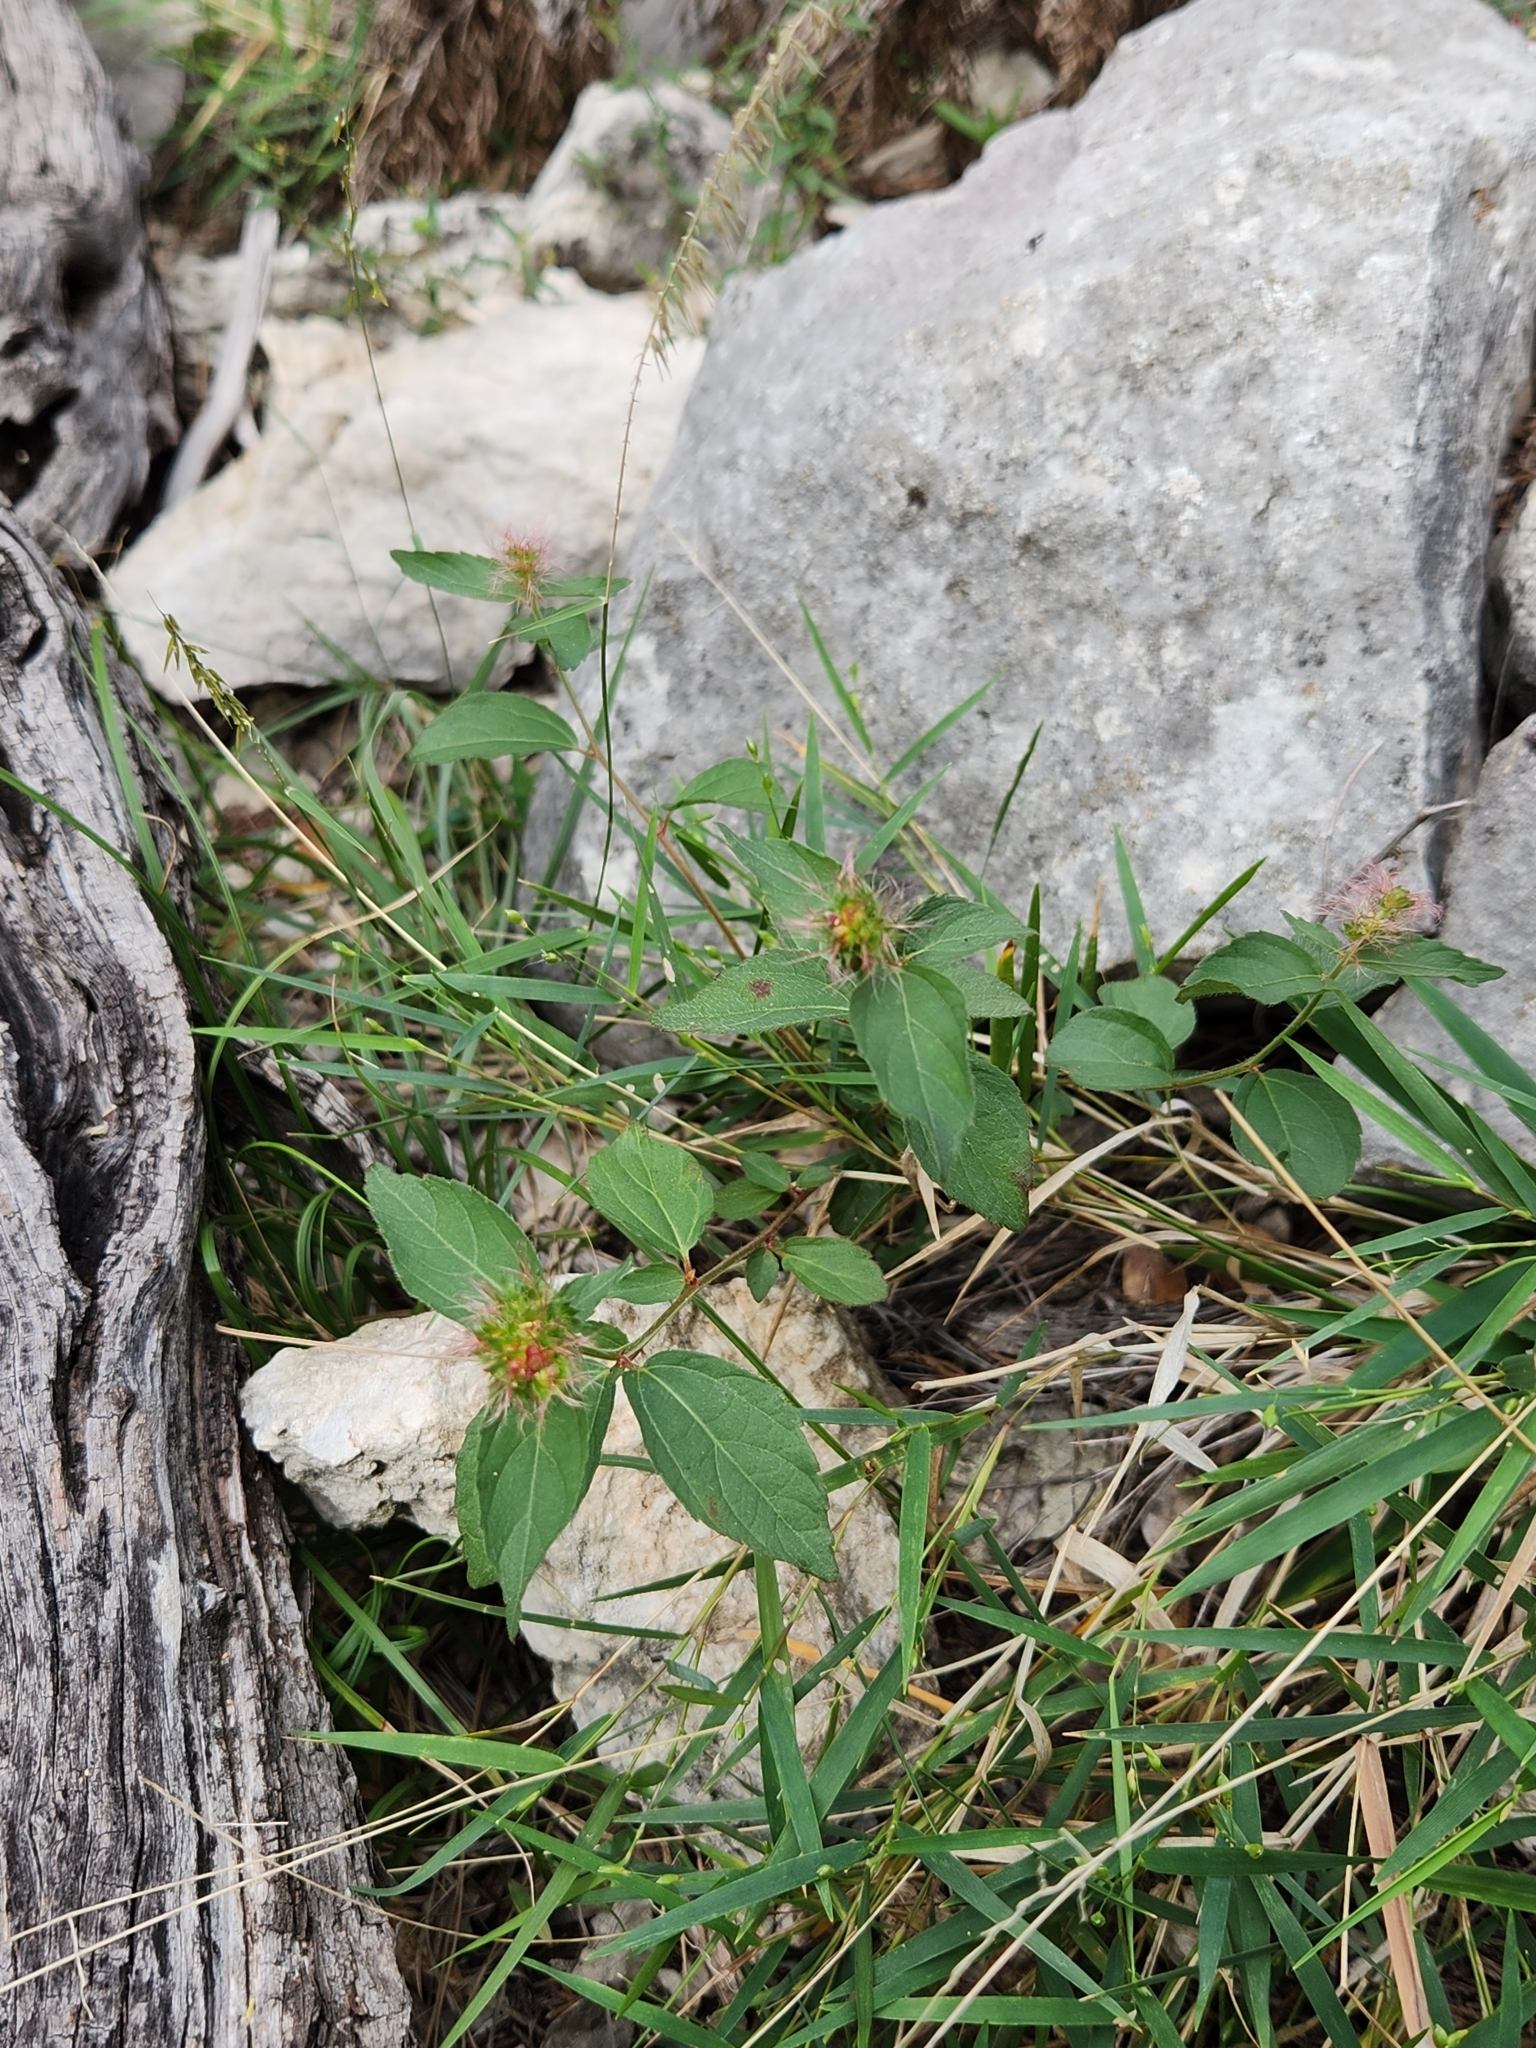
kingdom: Plantae
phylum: Tracheophyta
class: Magnoliopsida
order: Malpighiales
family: Euphorbiaceae
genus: Acalypha
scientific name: Acalypha phleoides
